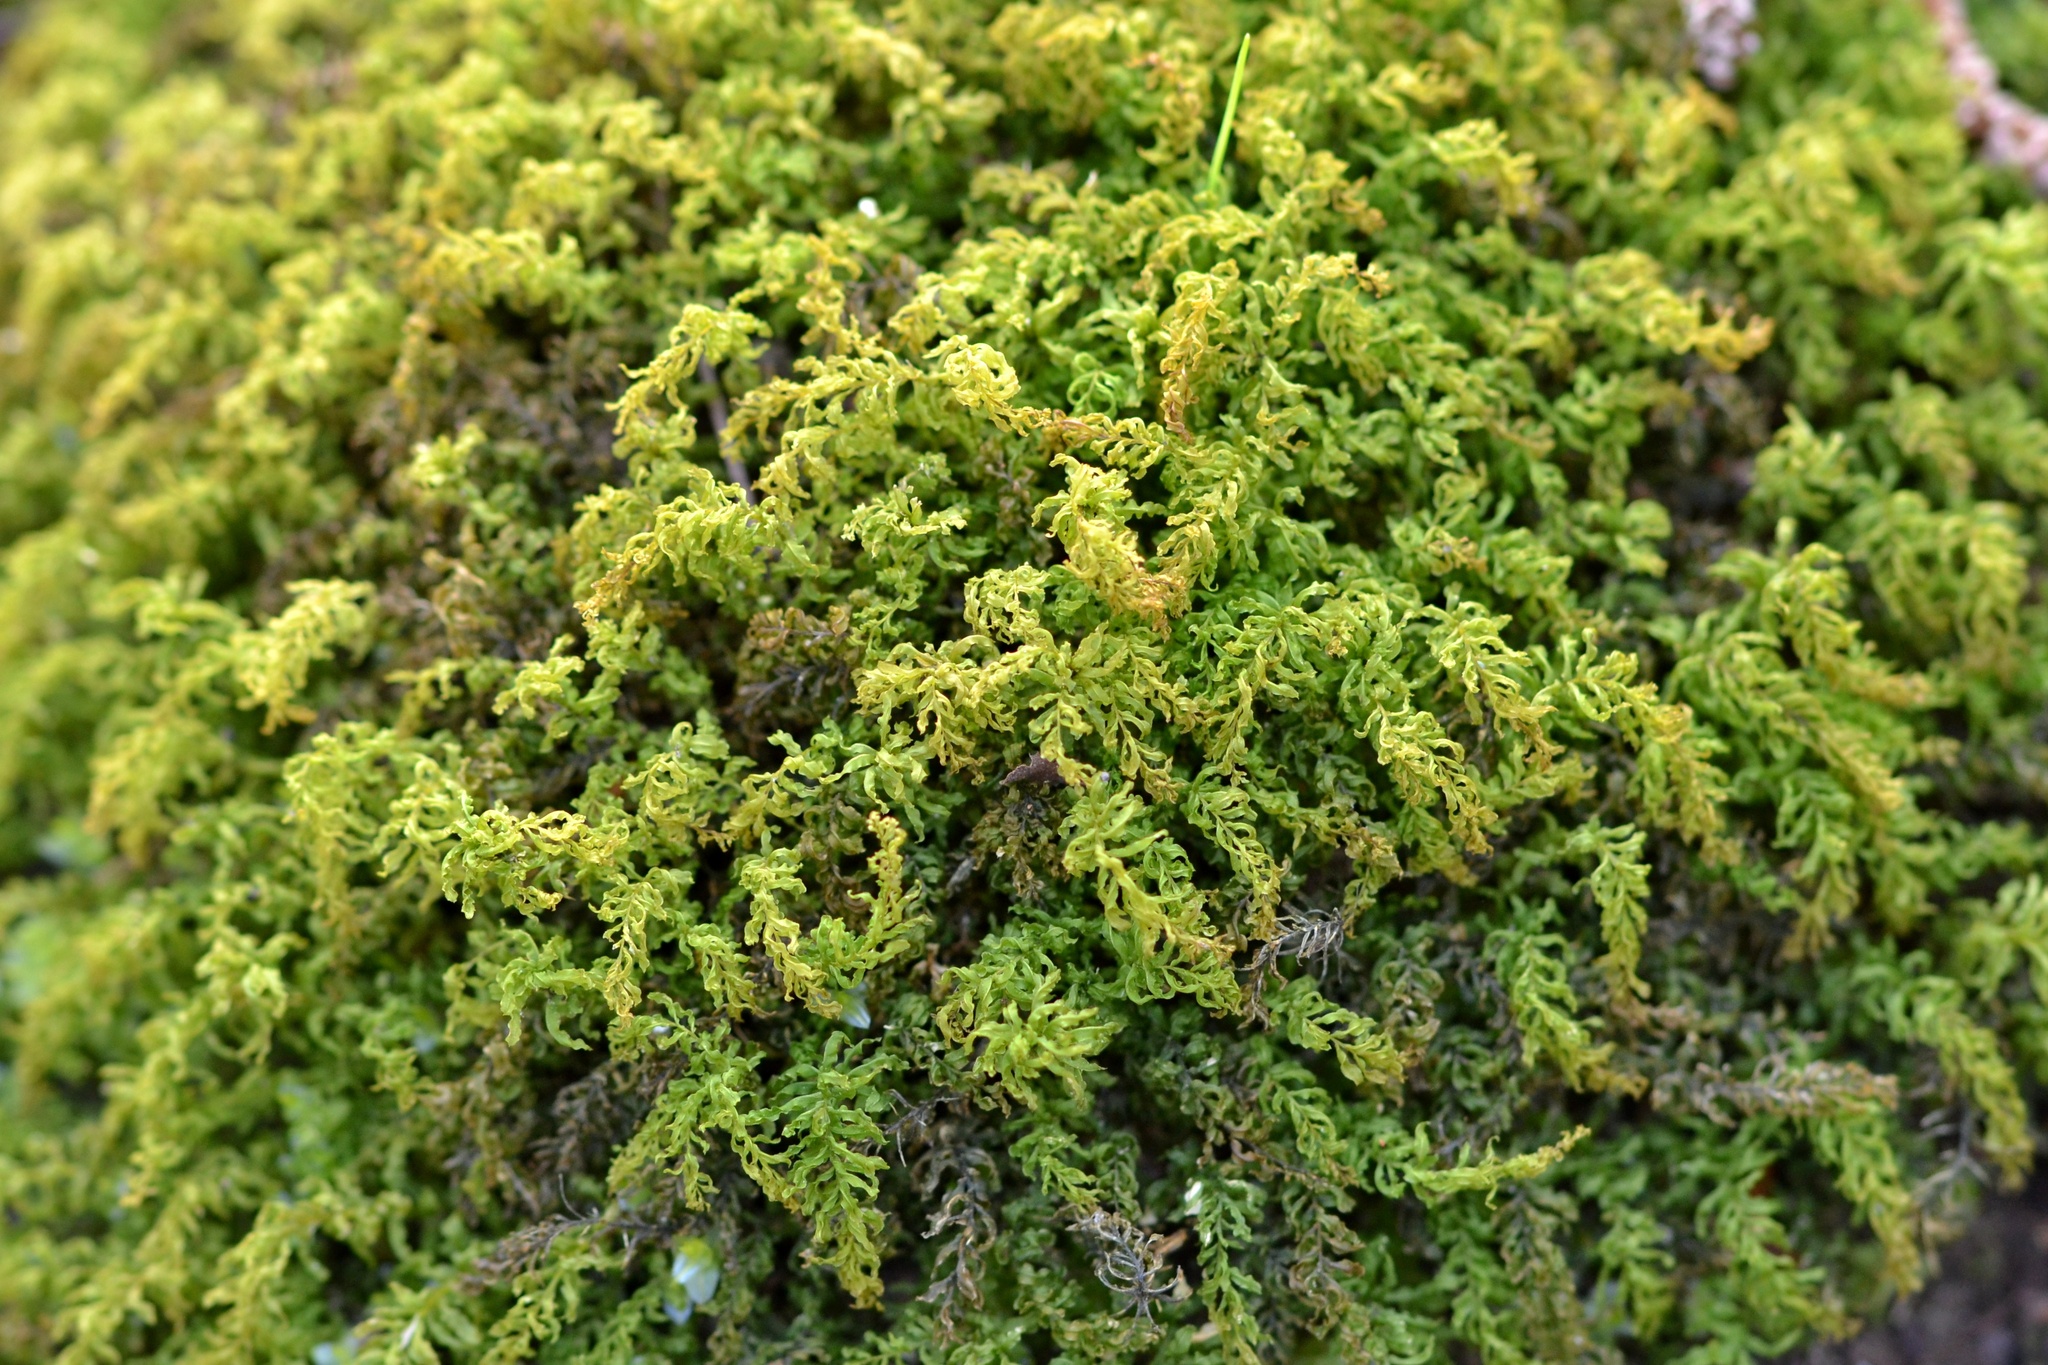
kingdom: Plantae
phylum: Bryophyta
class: Bryopsida
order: Bryales
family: Mniaceae
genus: Plagiomnium
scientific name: Plagiomnium undulatum
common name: Hart's-tongue thyme-moss
